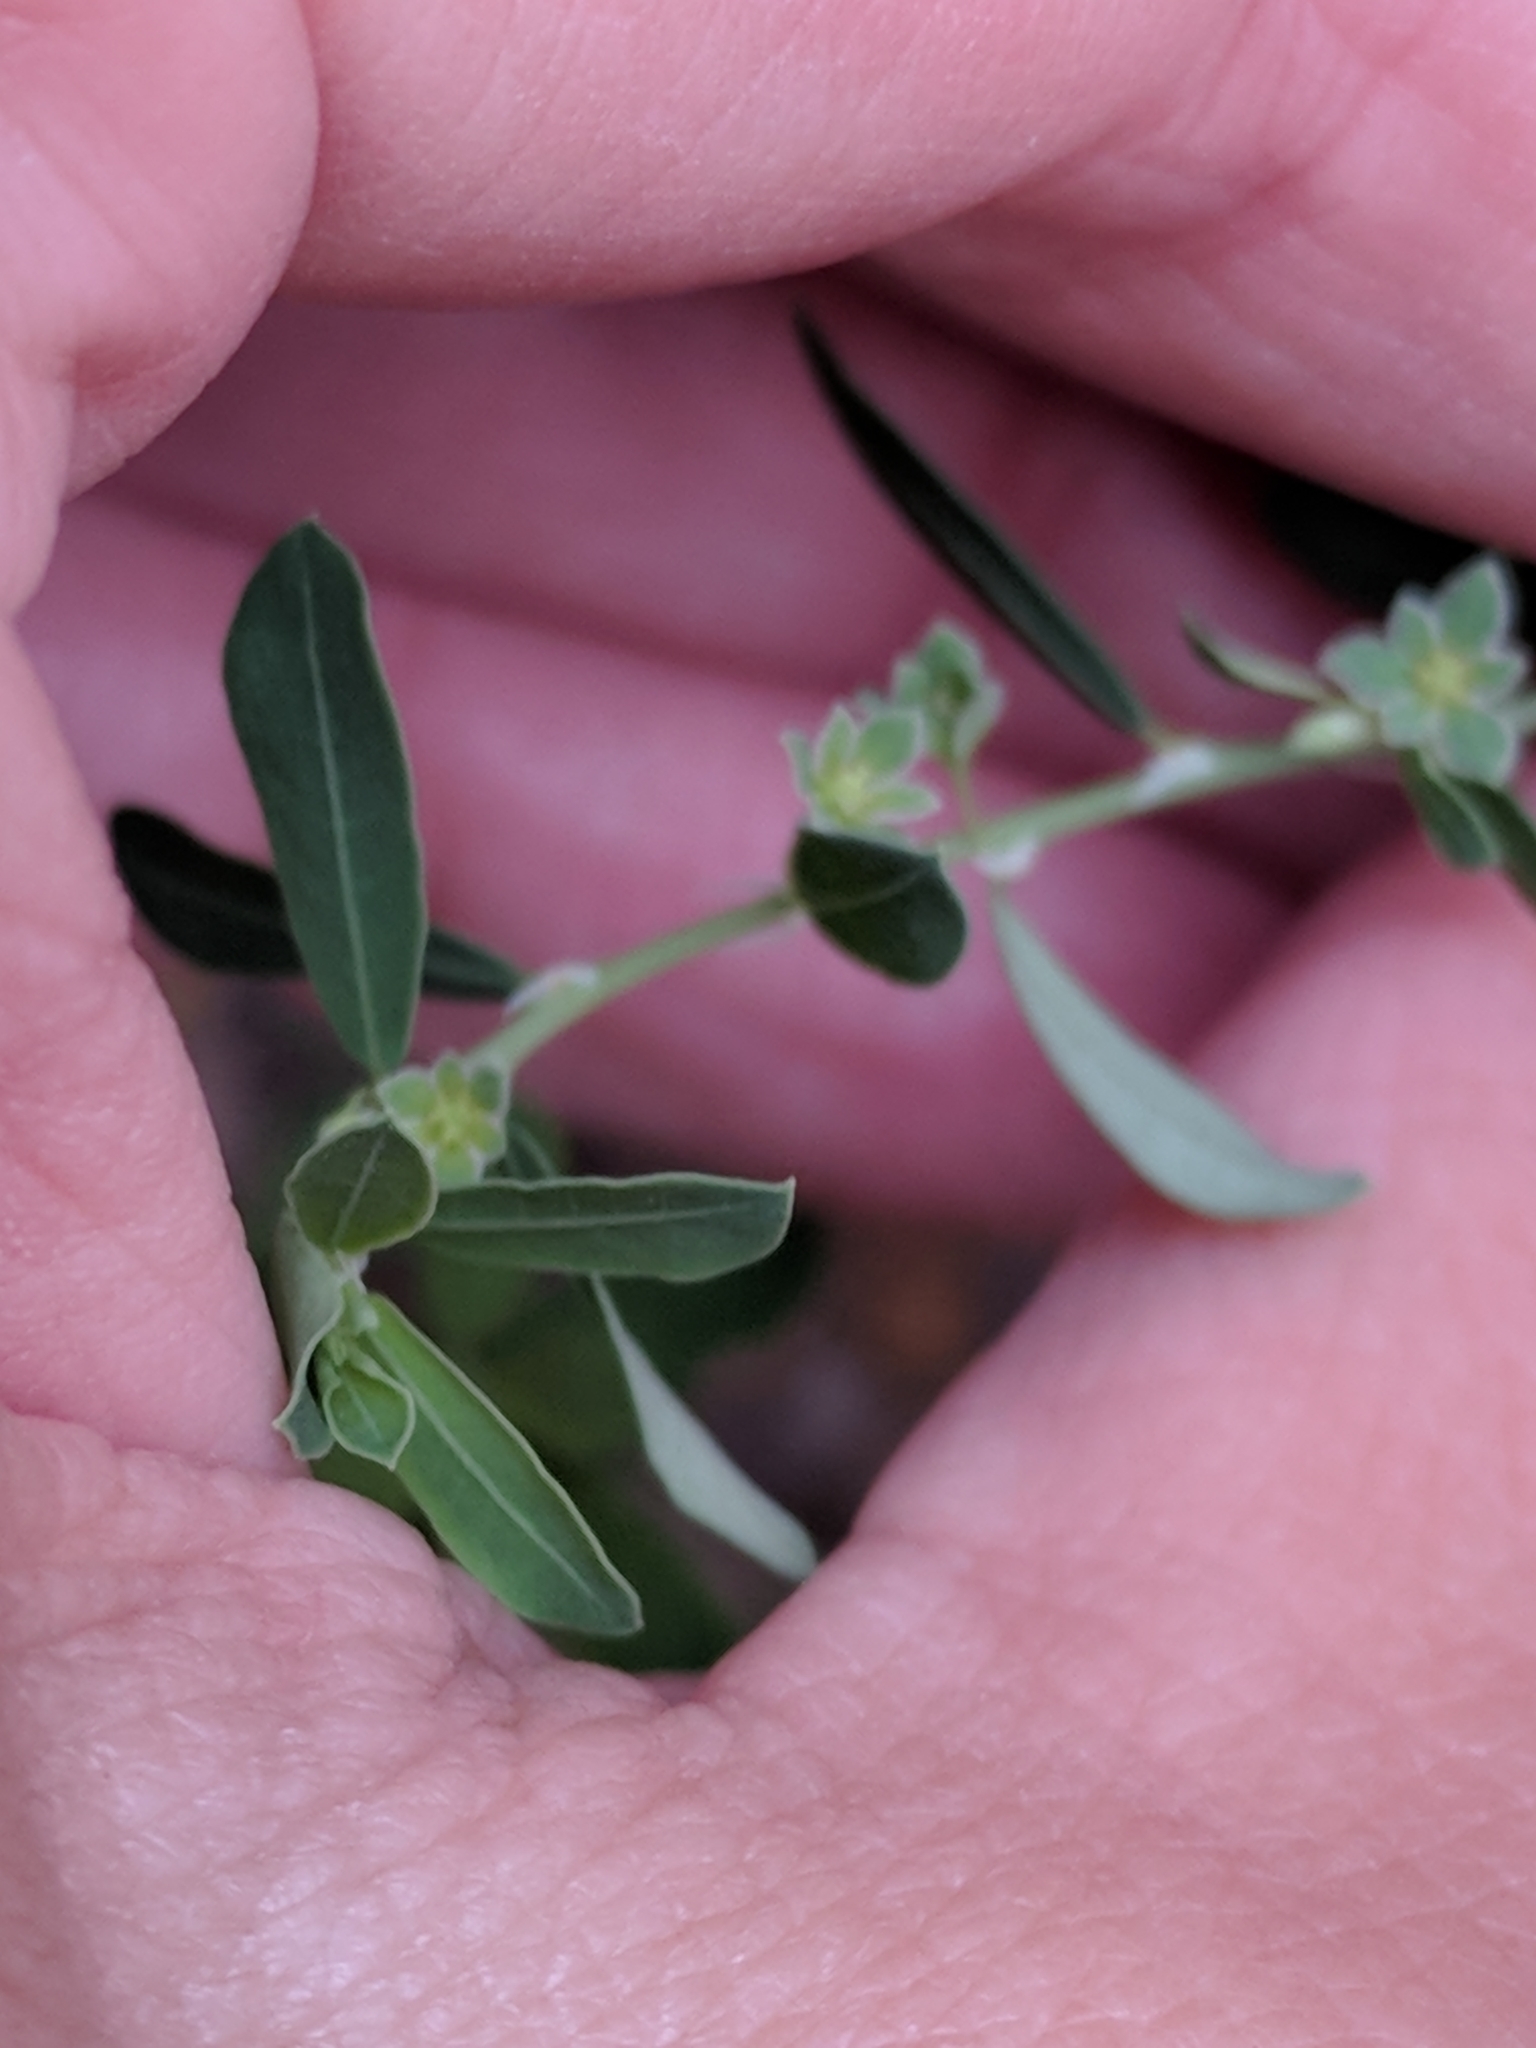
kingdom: Plantae
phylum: Tracheophyta
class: Magnoliopsida
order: Malpighiales
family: Phyllanthaceae
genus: Phyllanthus
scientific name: Phyllanthus polygonoides
